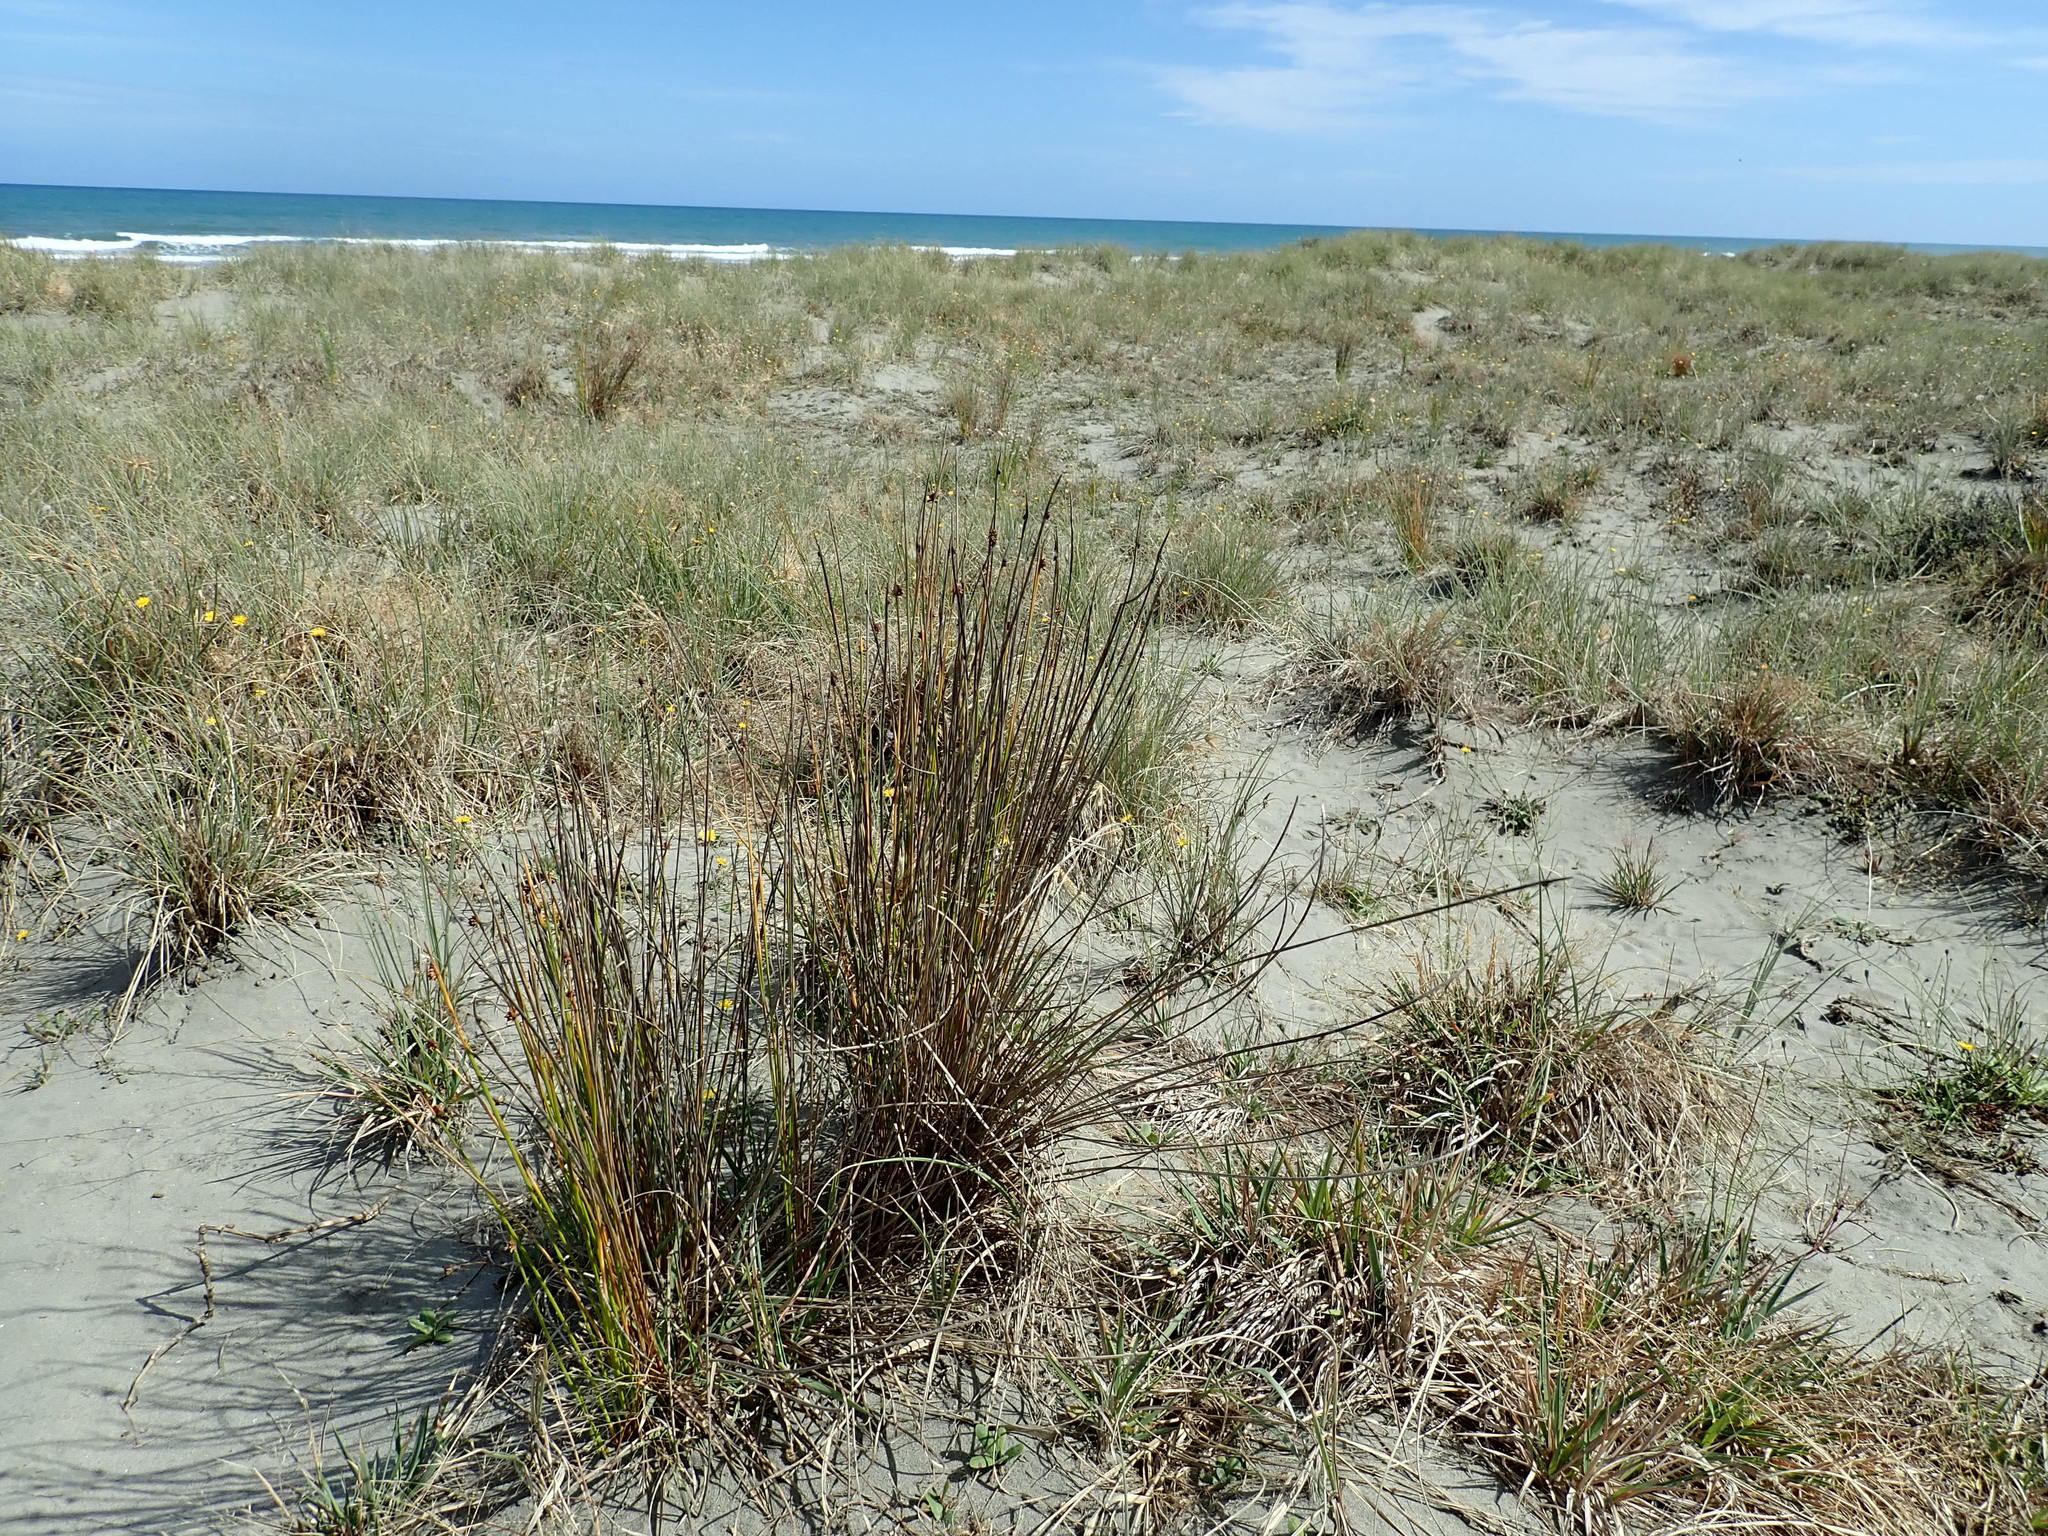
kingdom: Plantae
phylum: Tracheophyta
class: Liliopsida
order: Poales
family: Cyperaceae
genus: Ficinia
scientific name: Ficinia nodosa
